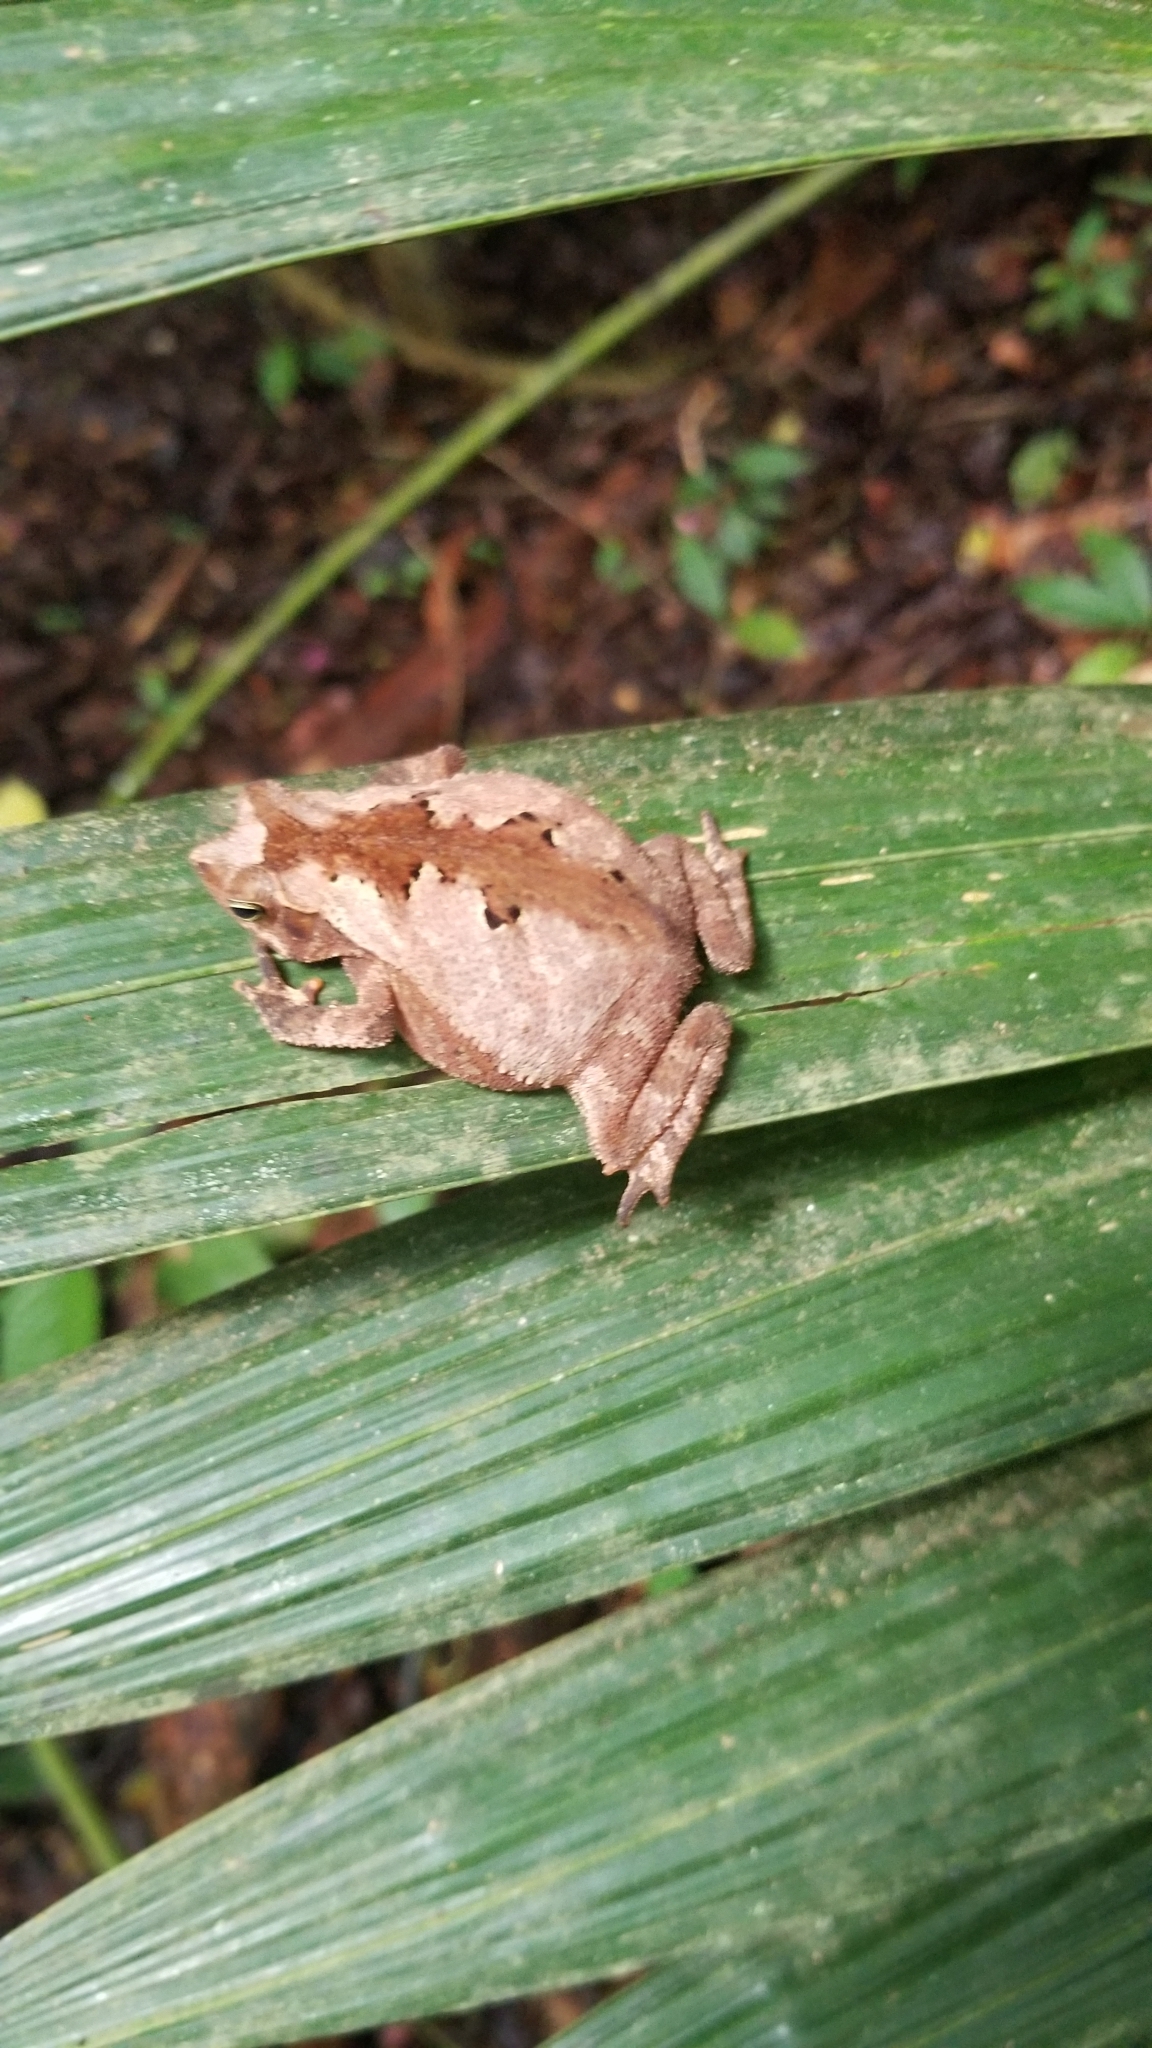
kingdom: Animalia
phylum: Chordata
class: Amphibia
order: Anura
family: Bufonidae
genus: Rhinella
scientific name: Rhinella alata
